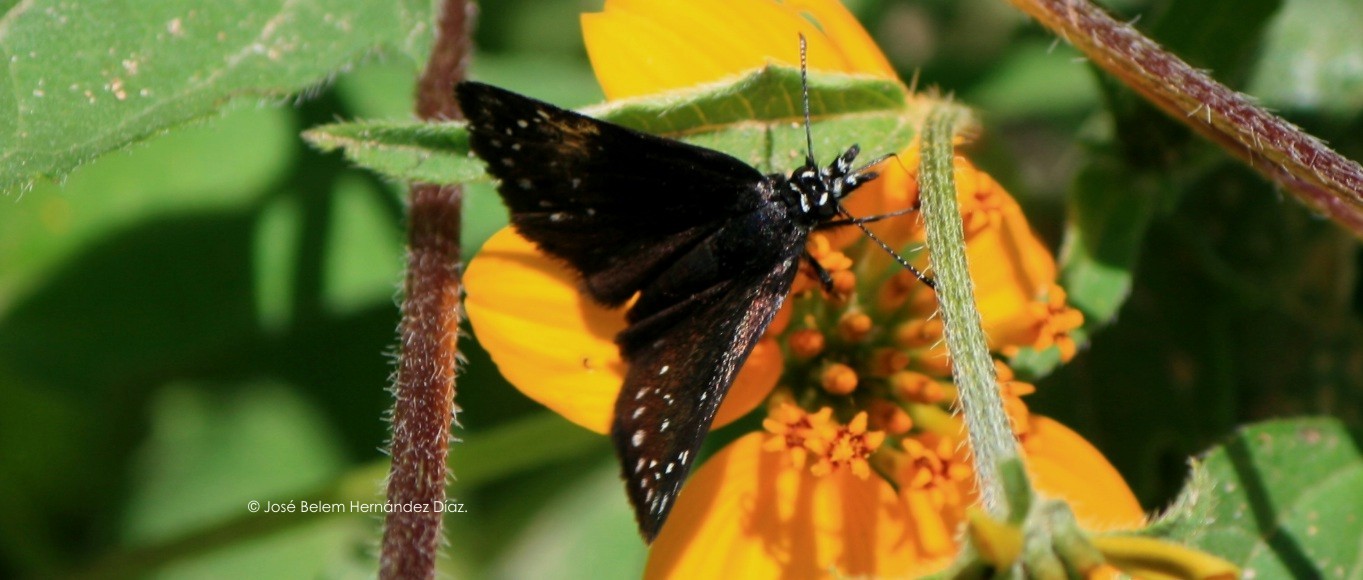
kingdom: Animalia
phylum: Arthropoda
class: Insecta
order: Lepidoptera
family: Hesperiidae
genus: Pholisora
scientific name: Pholisora mejicanus
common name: Mexican sootywing
